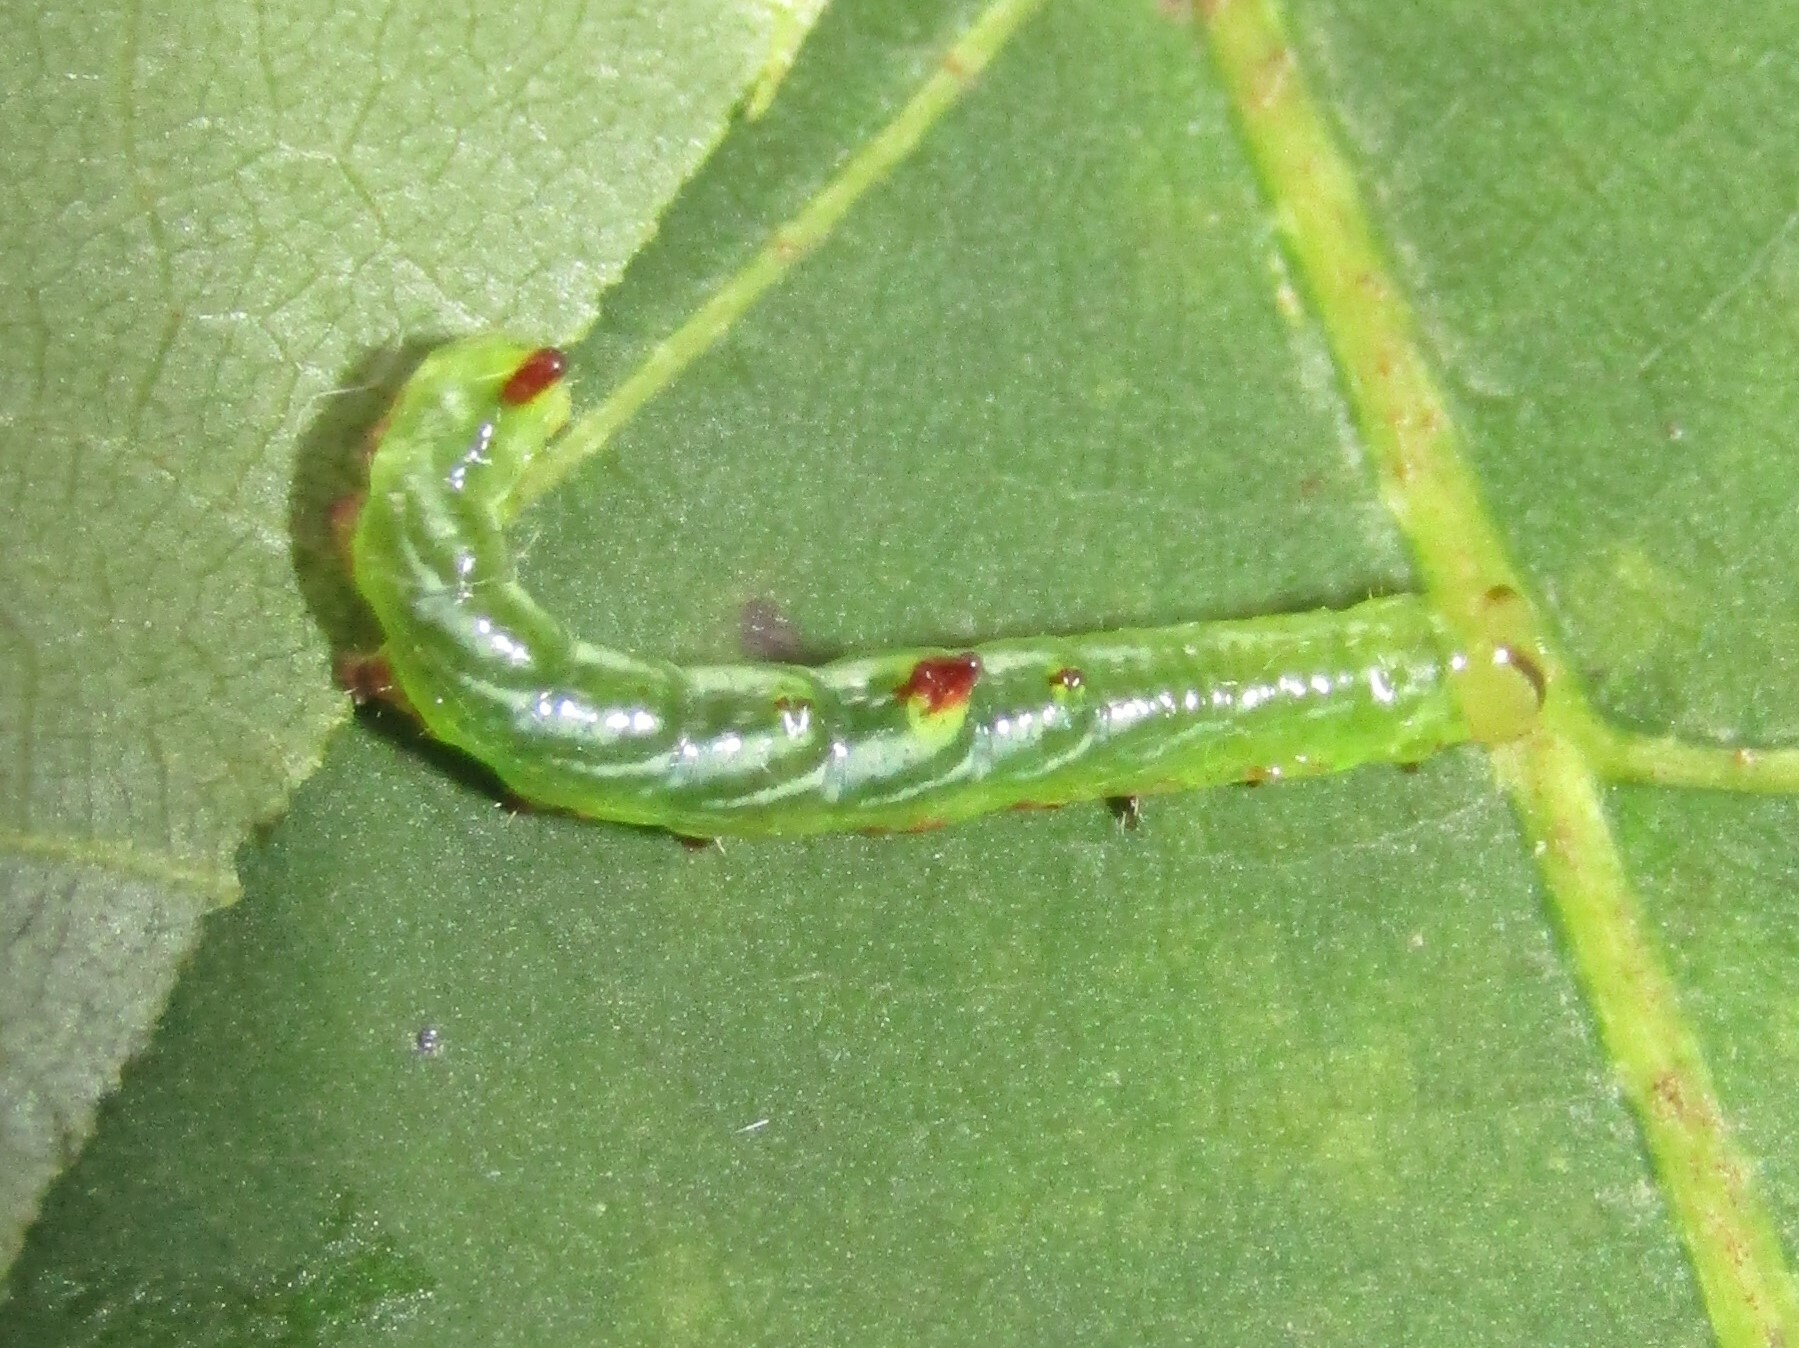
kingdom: Animalia
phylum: Arthropoda
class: Insecta
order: Lepidoptera
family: Notodontidae
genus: Nerice
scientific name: Nerice bidentata
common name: Double-toothed prominent
